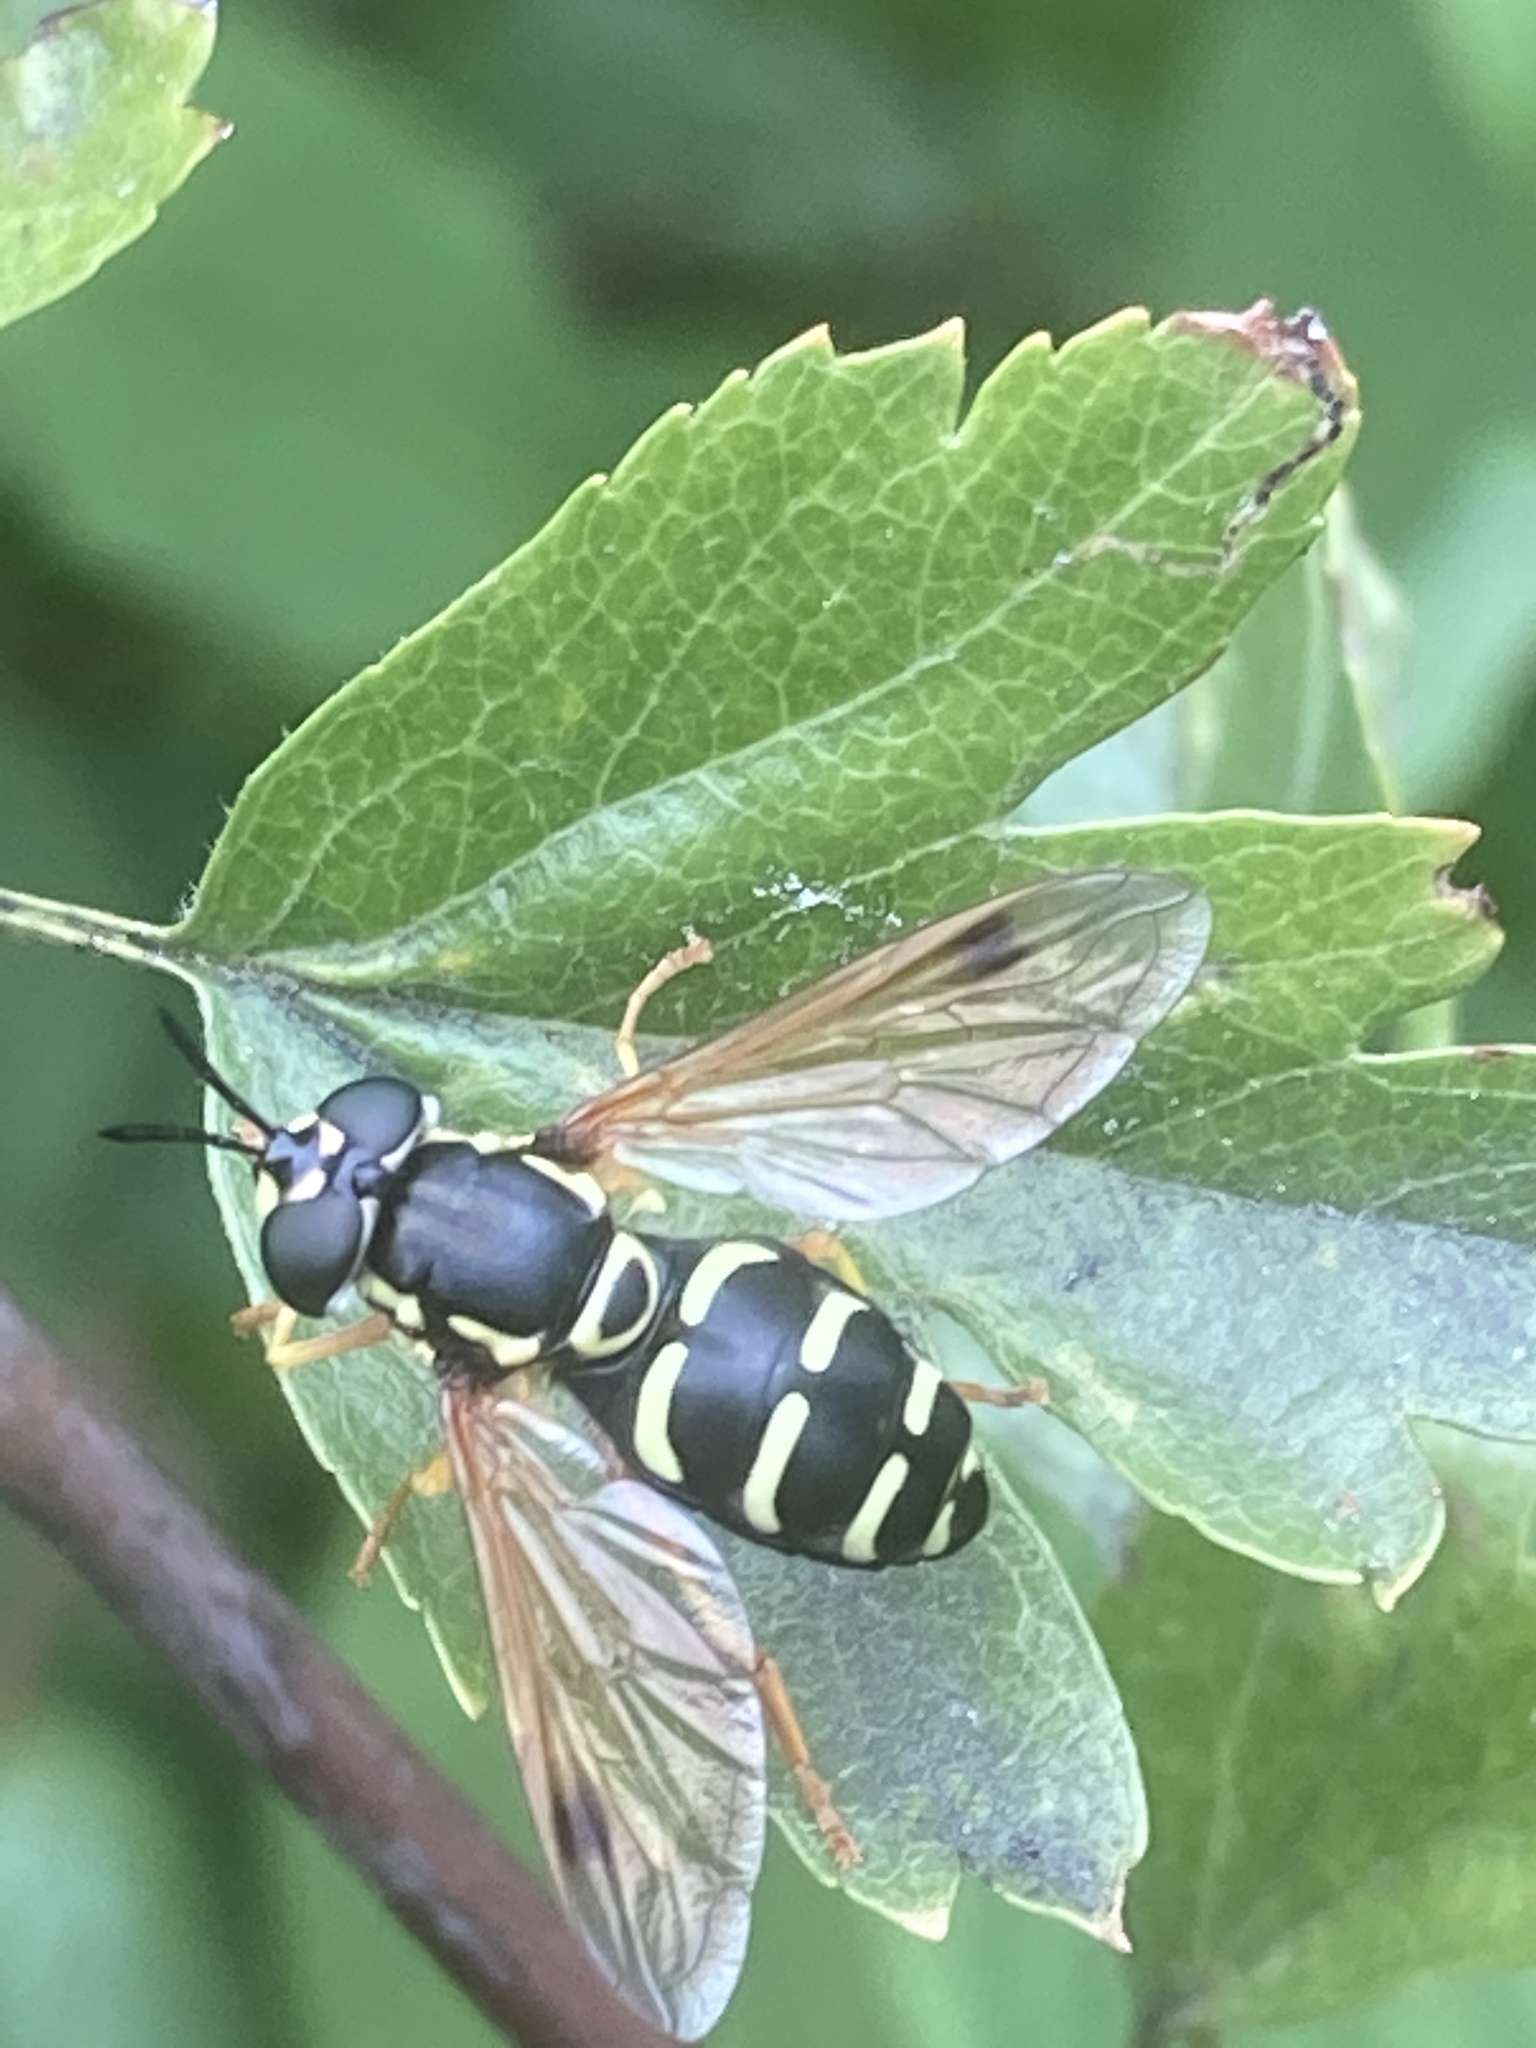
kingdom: Animalia
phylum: Arthropoda
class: Insecta
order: Diptera
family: Syrphidae
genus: Chrysotoxum
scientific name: Chrysotoxum festivum
